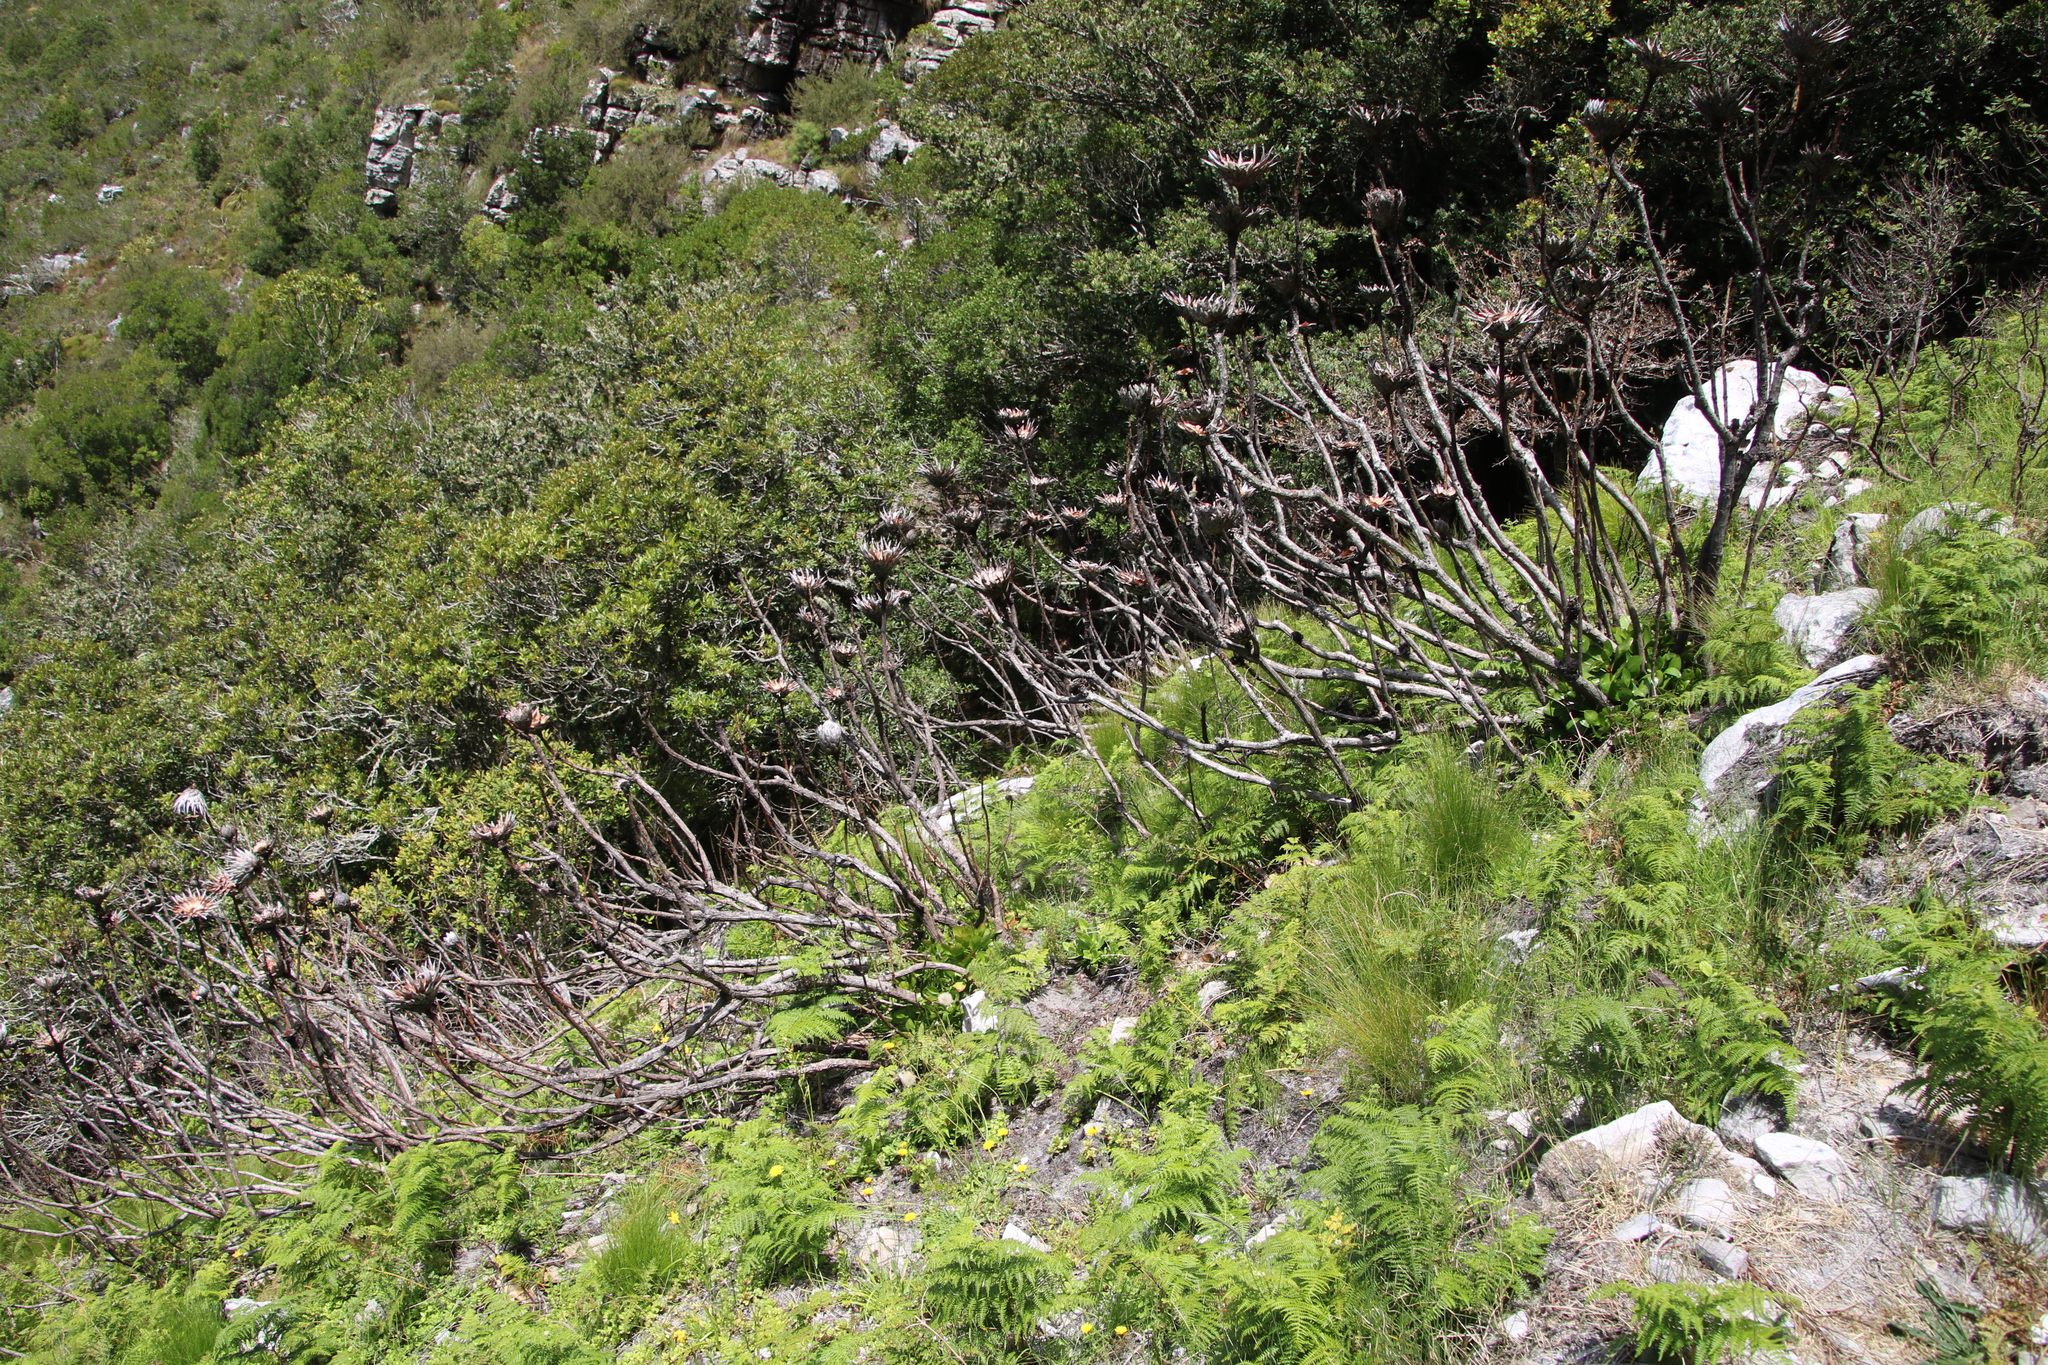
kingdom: Plantae
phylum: Tracheophyta
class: Magnoliopsida
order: Proteales
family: Proteaceae
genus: Protea
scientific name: Protea cynaroides
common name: King protea
